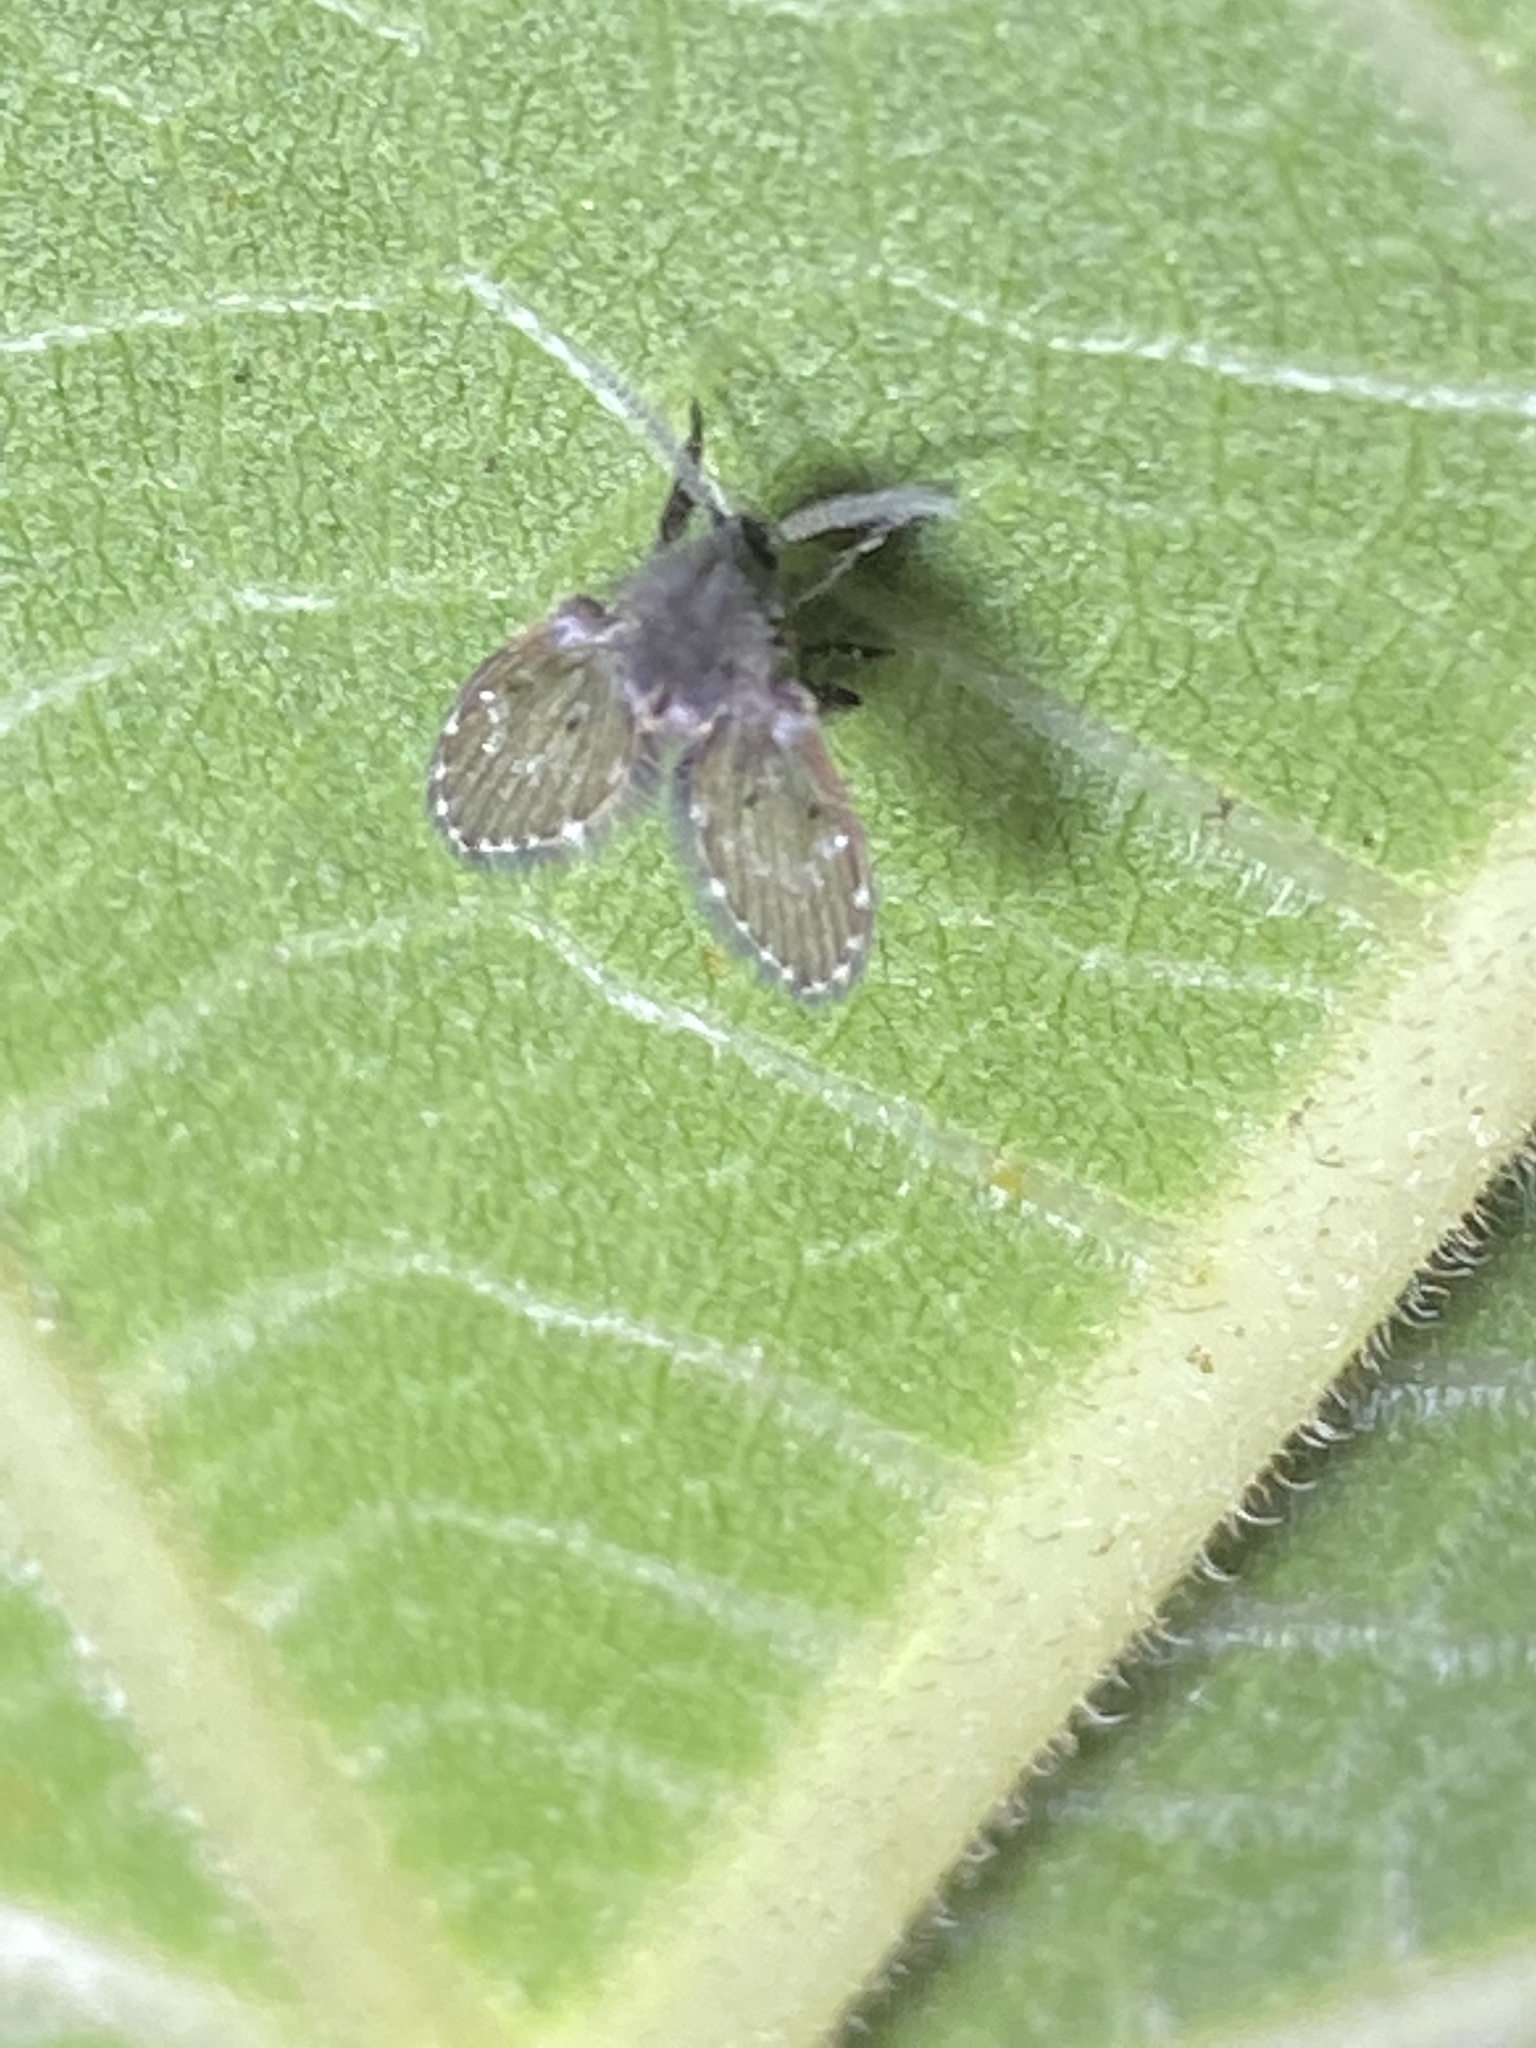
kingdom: Animalia
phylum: Arthropoda
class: Insecta
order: Diptera
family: Psychodidae
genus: Clogmia
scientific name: Clogmia albipunctatus
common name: White-spotted moth fly
